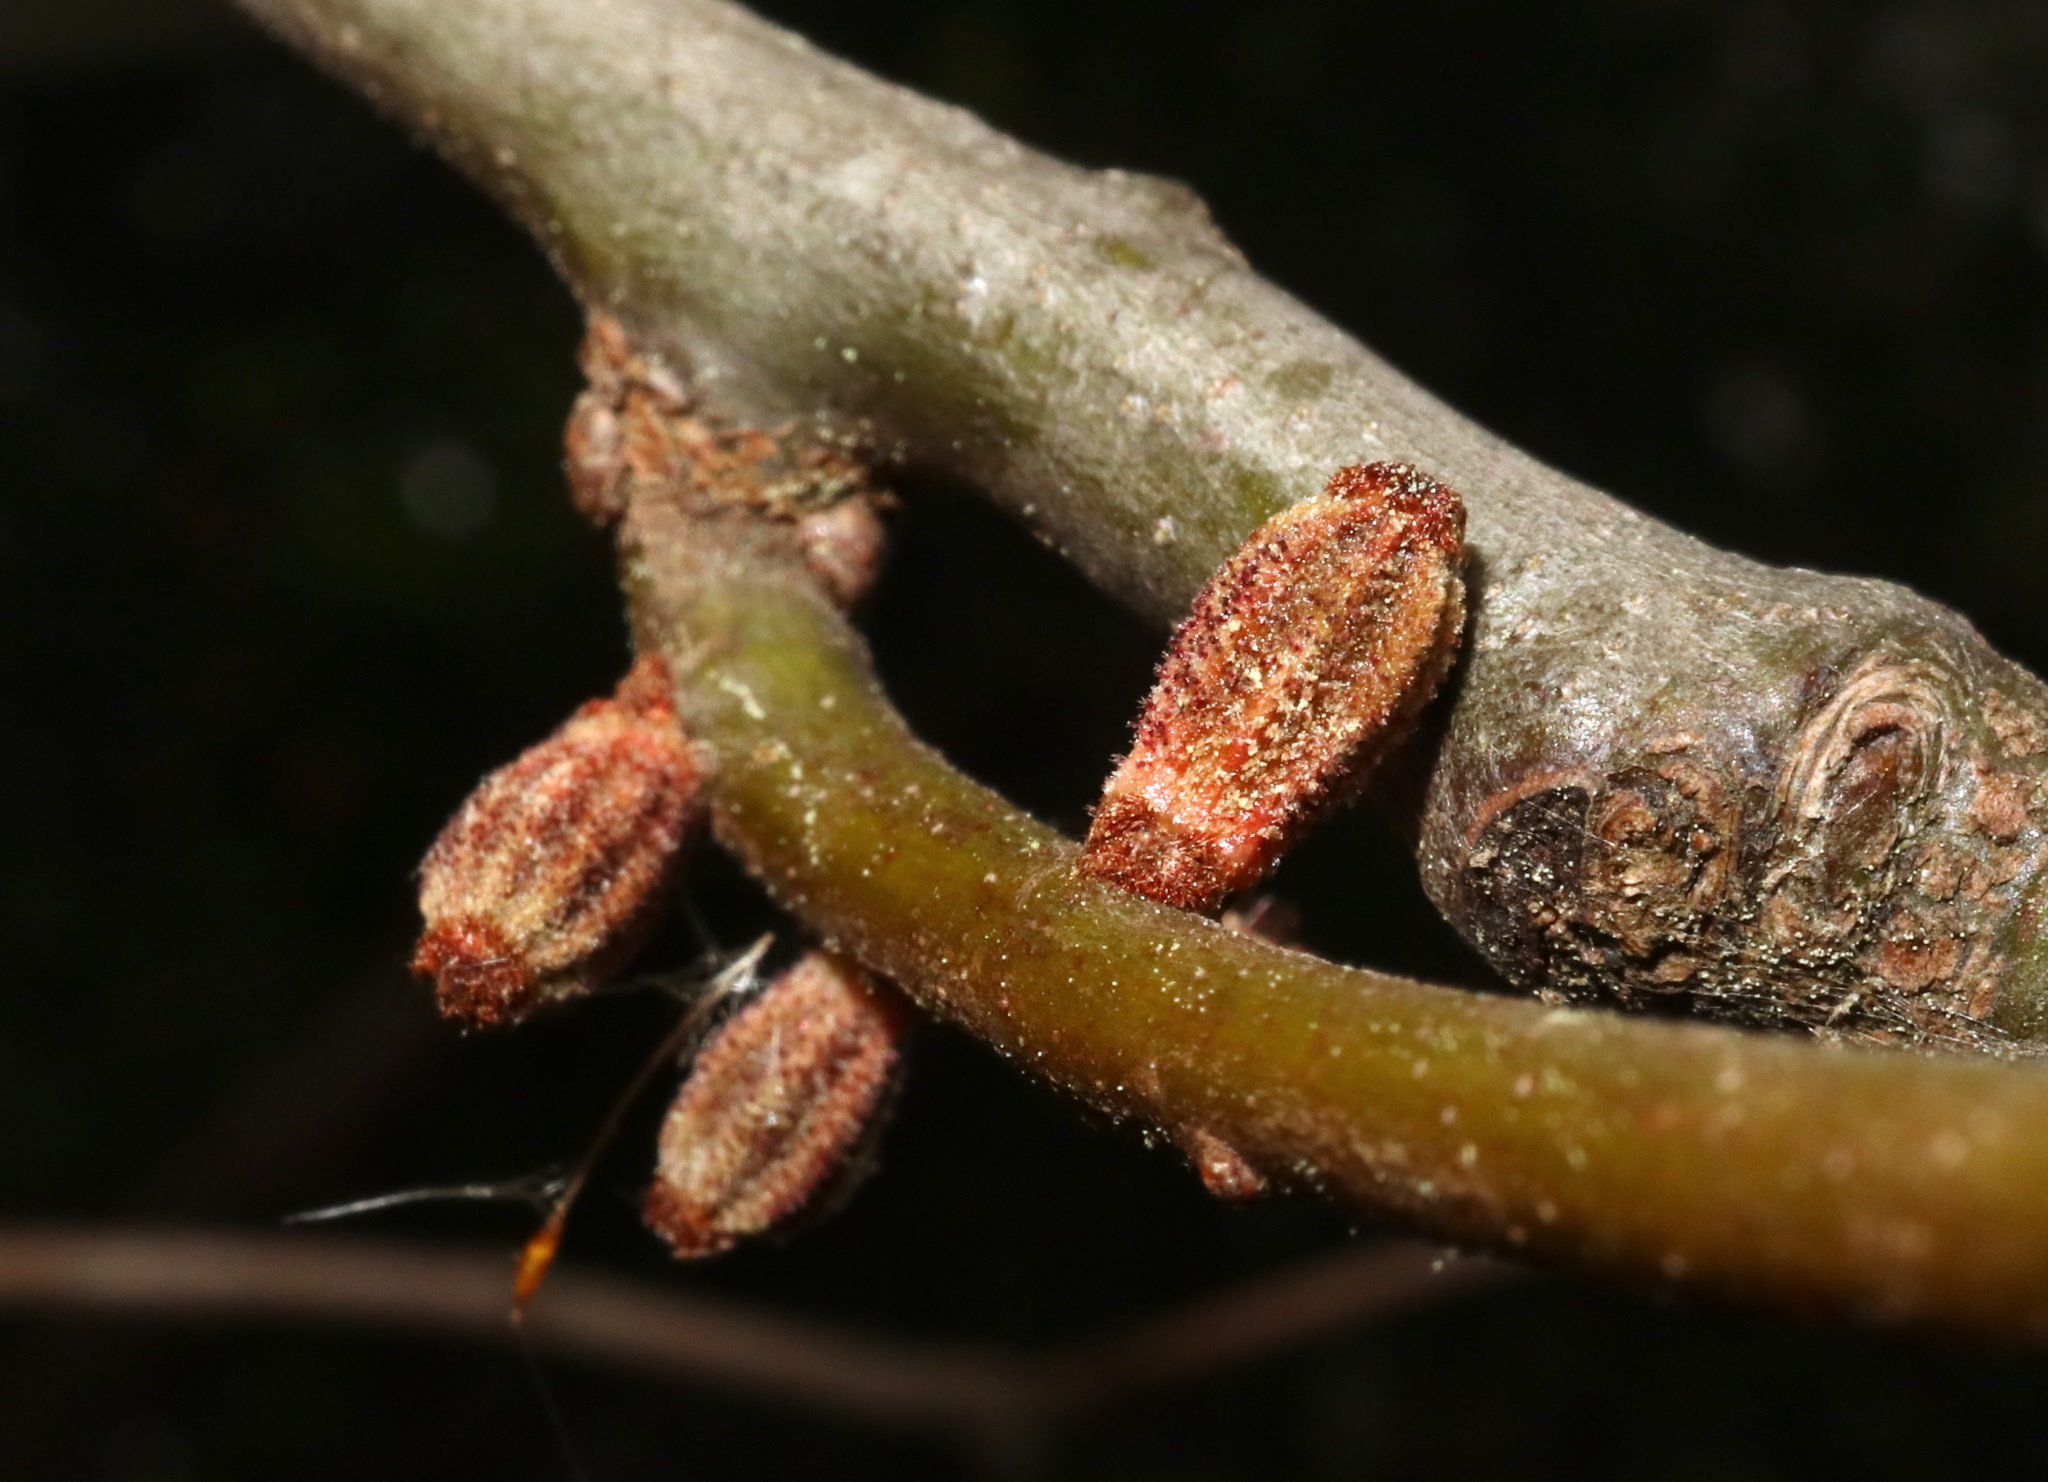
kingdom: Animalia
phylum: Arthropoda
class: Insecta
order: Hymenoptera
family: Cynipidae
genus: Callirhytis
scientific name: Callirhytis
